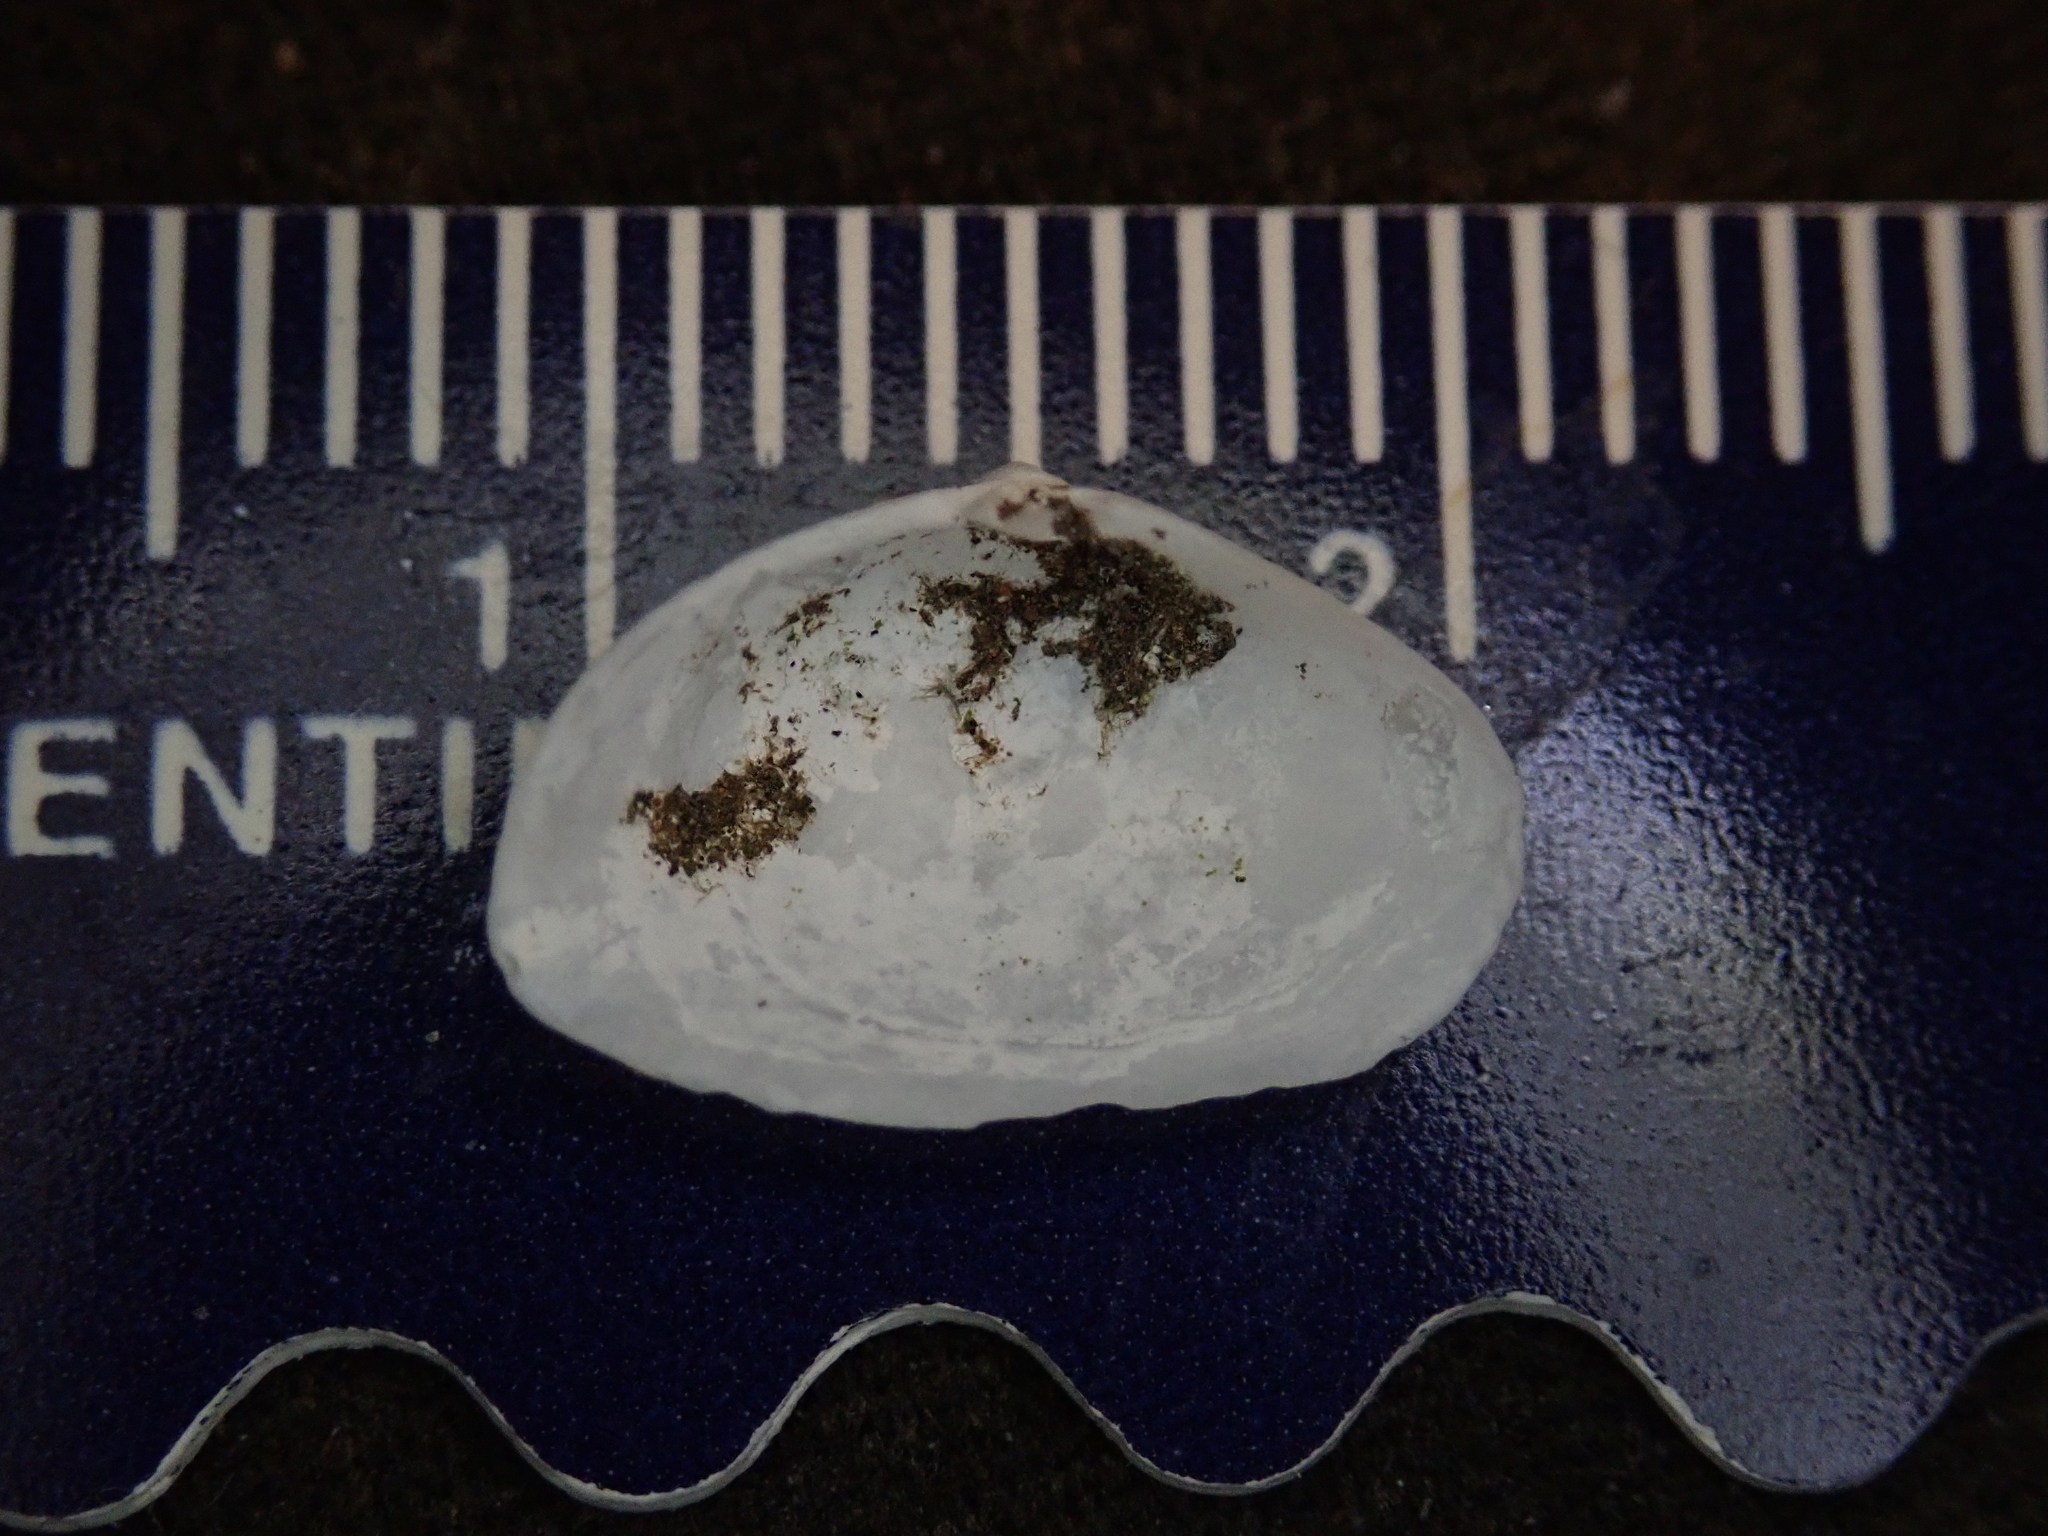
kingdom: Animalia
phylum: Mollusca
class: Bivalvia
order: Myida
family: Corbulidae
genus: Potamocorbula
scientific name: Potamocorbula amurensis
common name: Brackish-water corbula
